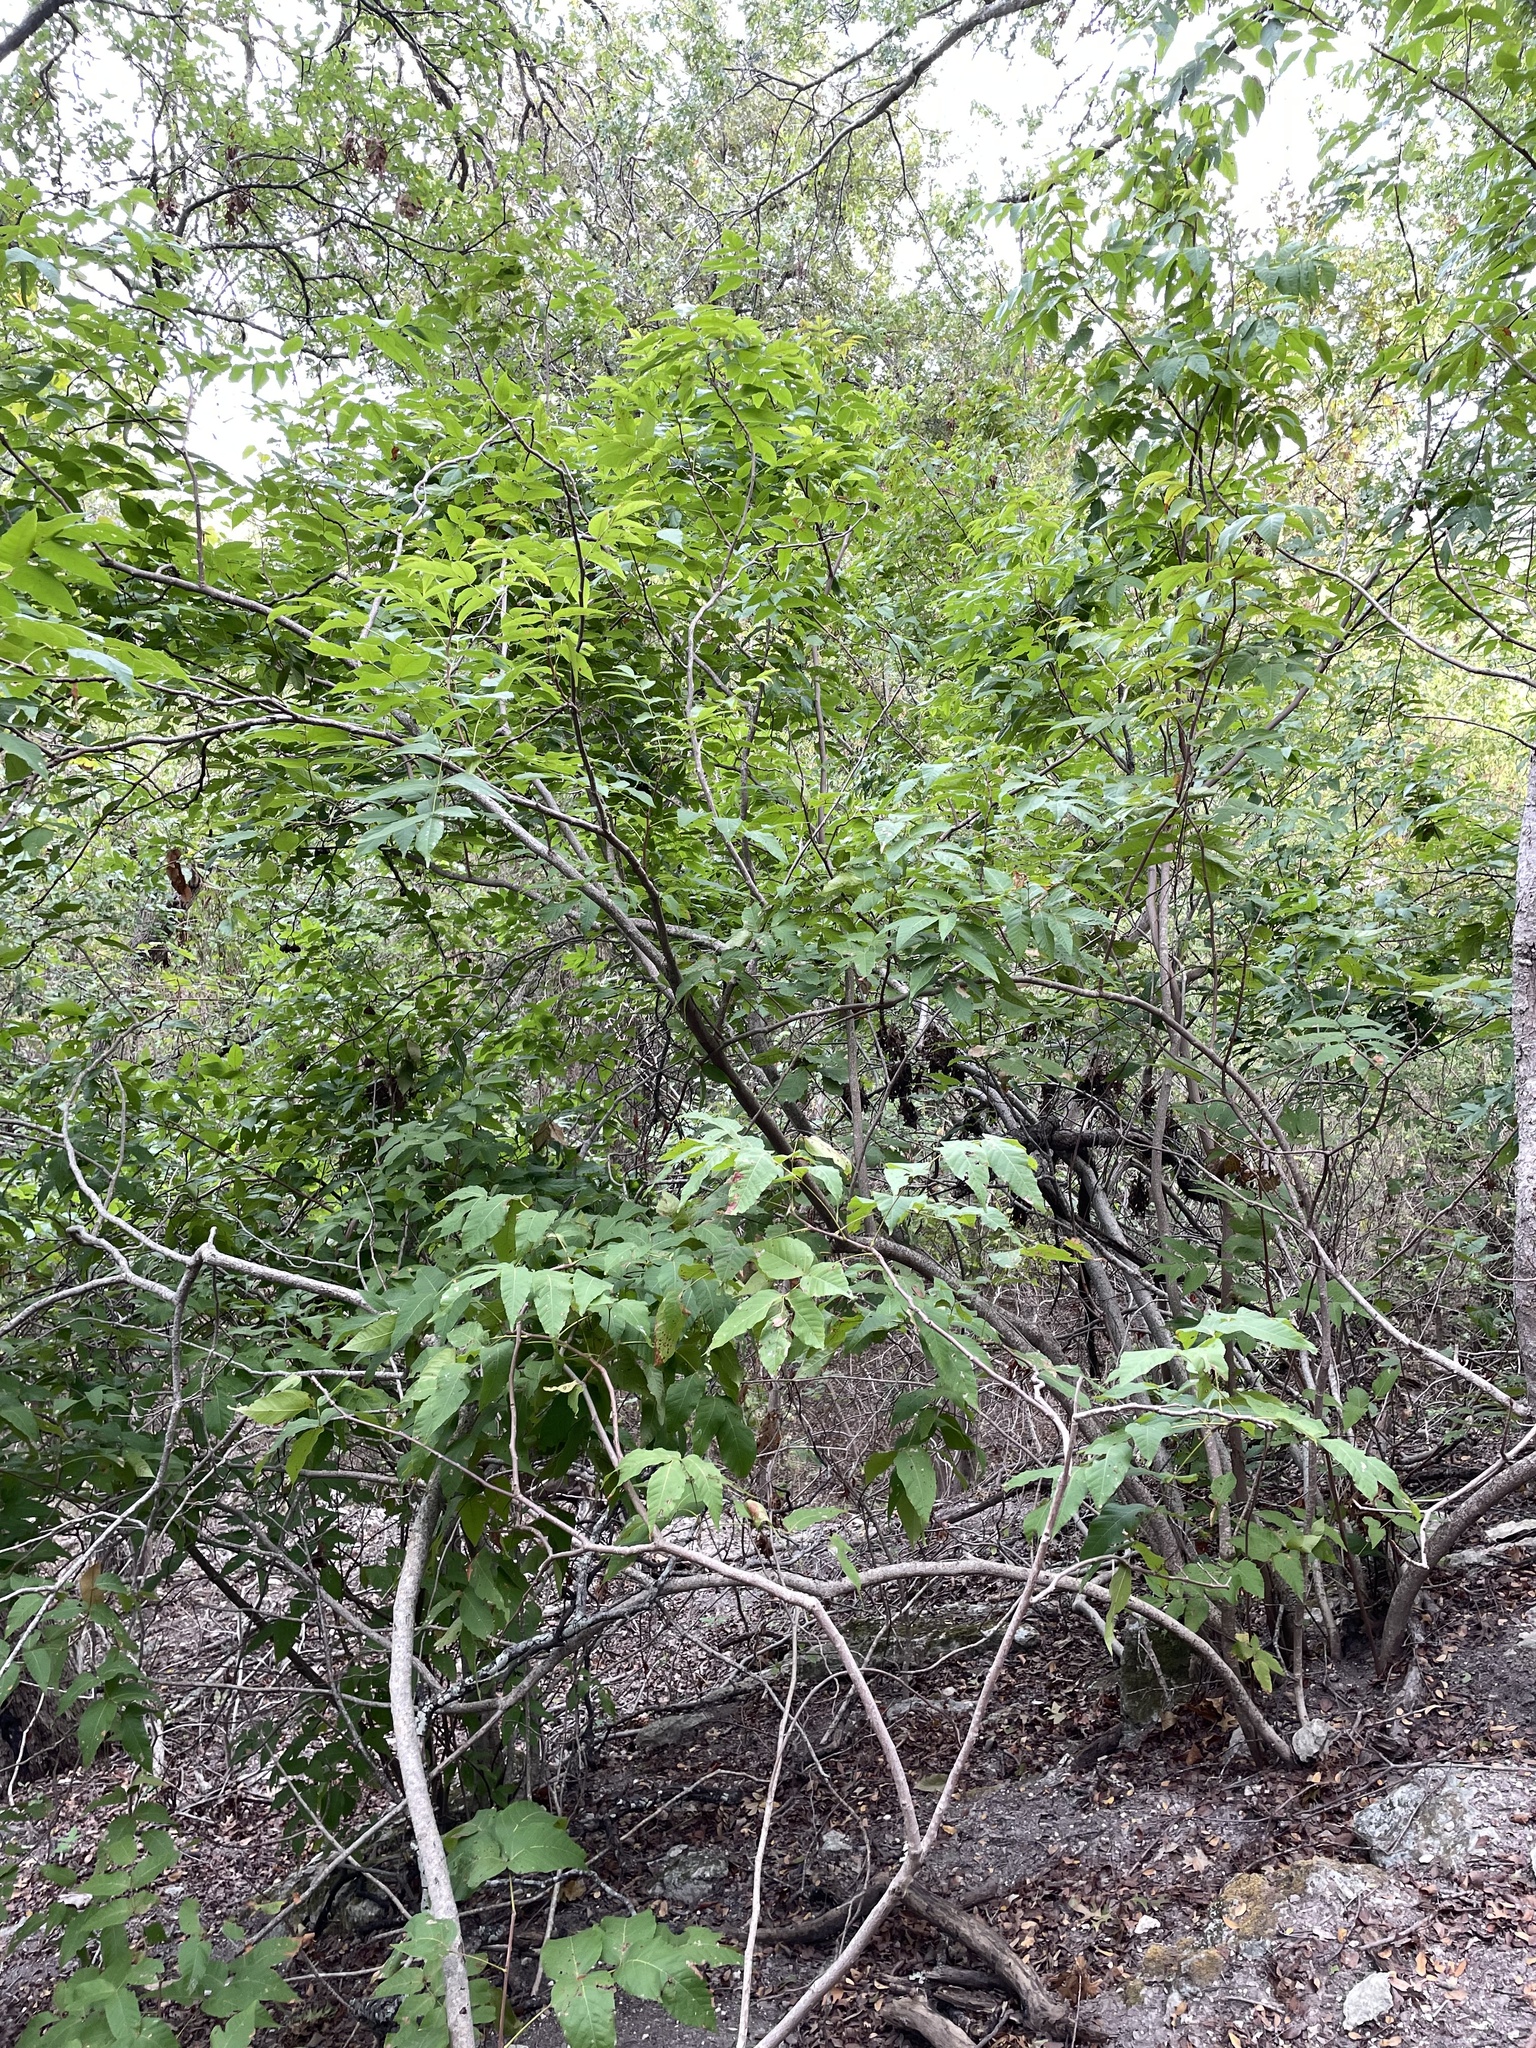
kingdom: Plantae
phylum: Tracheophyta
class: Magnoliopsida
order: Sapindales
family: Sapindaceae
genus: Ungnadia
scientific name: Ungnadia speciosa
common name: Texas-buckeye
